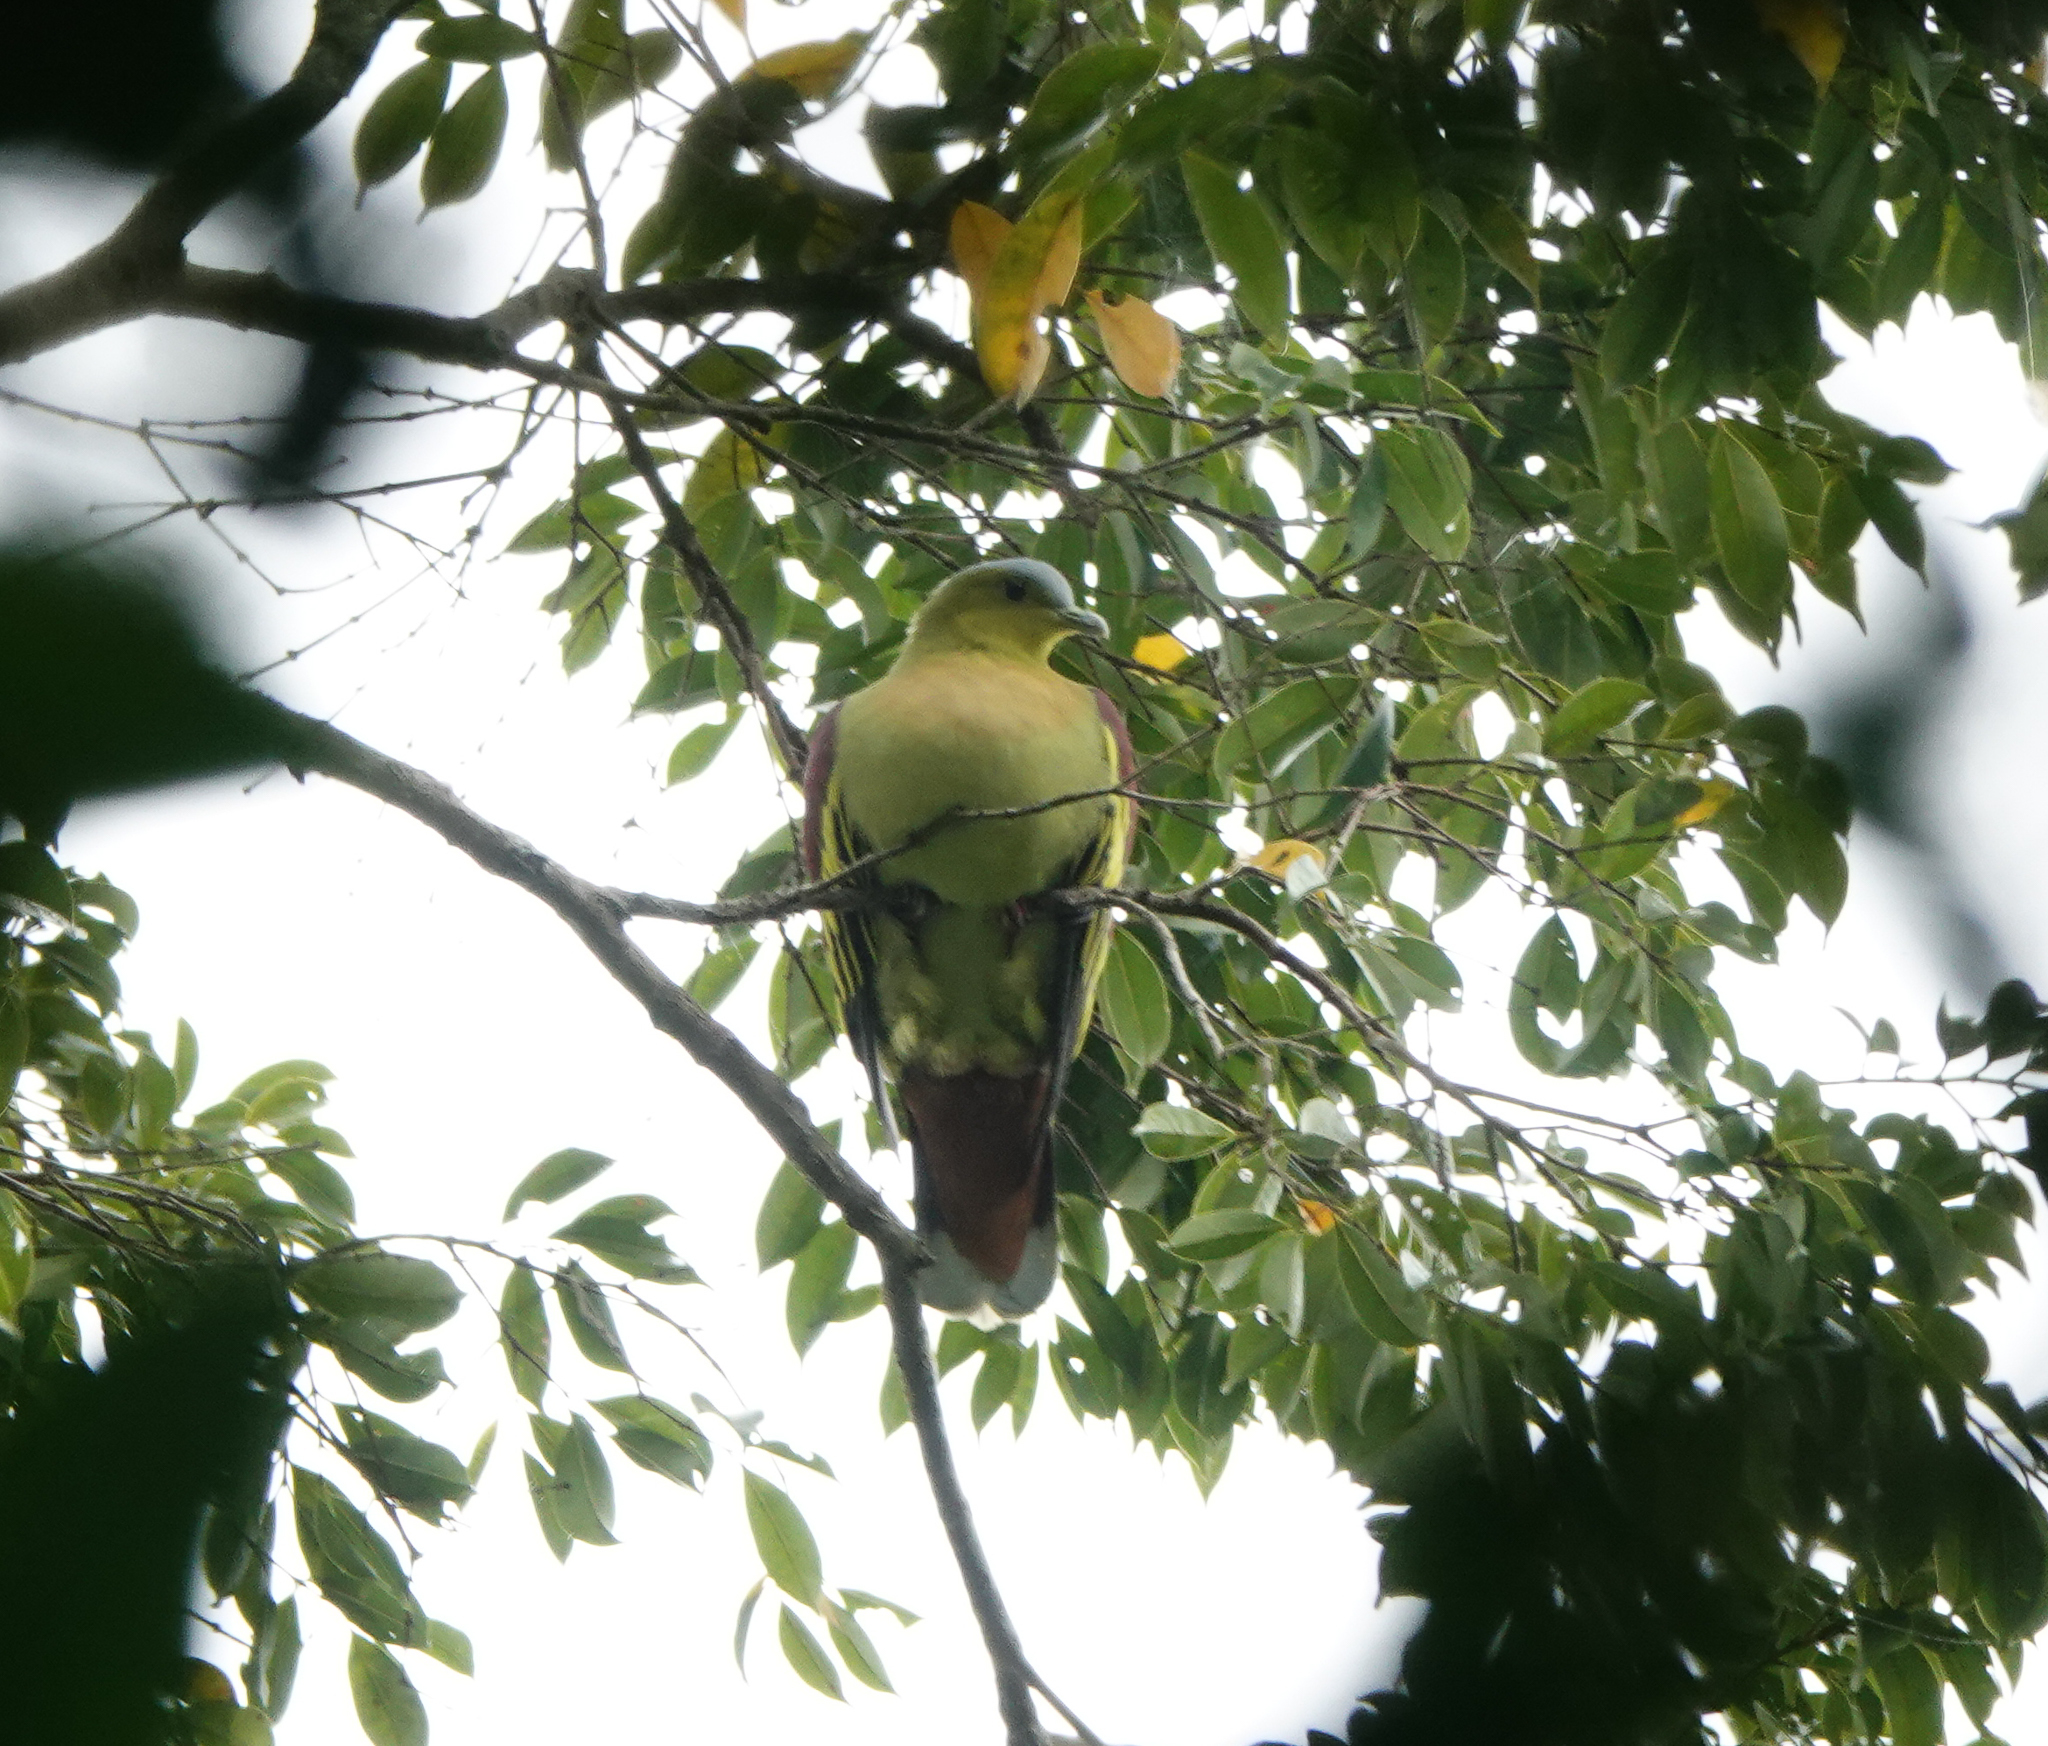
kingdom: Animalia
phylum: Chordata
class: Aves
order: Columbiformes
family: Columbidae
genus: Treron
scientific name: Treron phayrei
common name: Ashy-headed green pigeon
